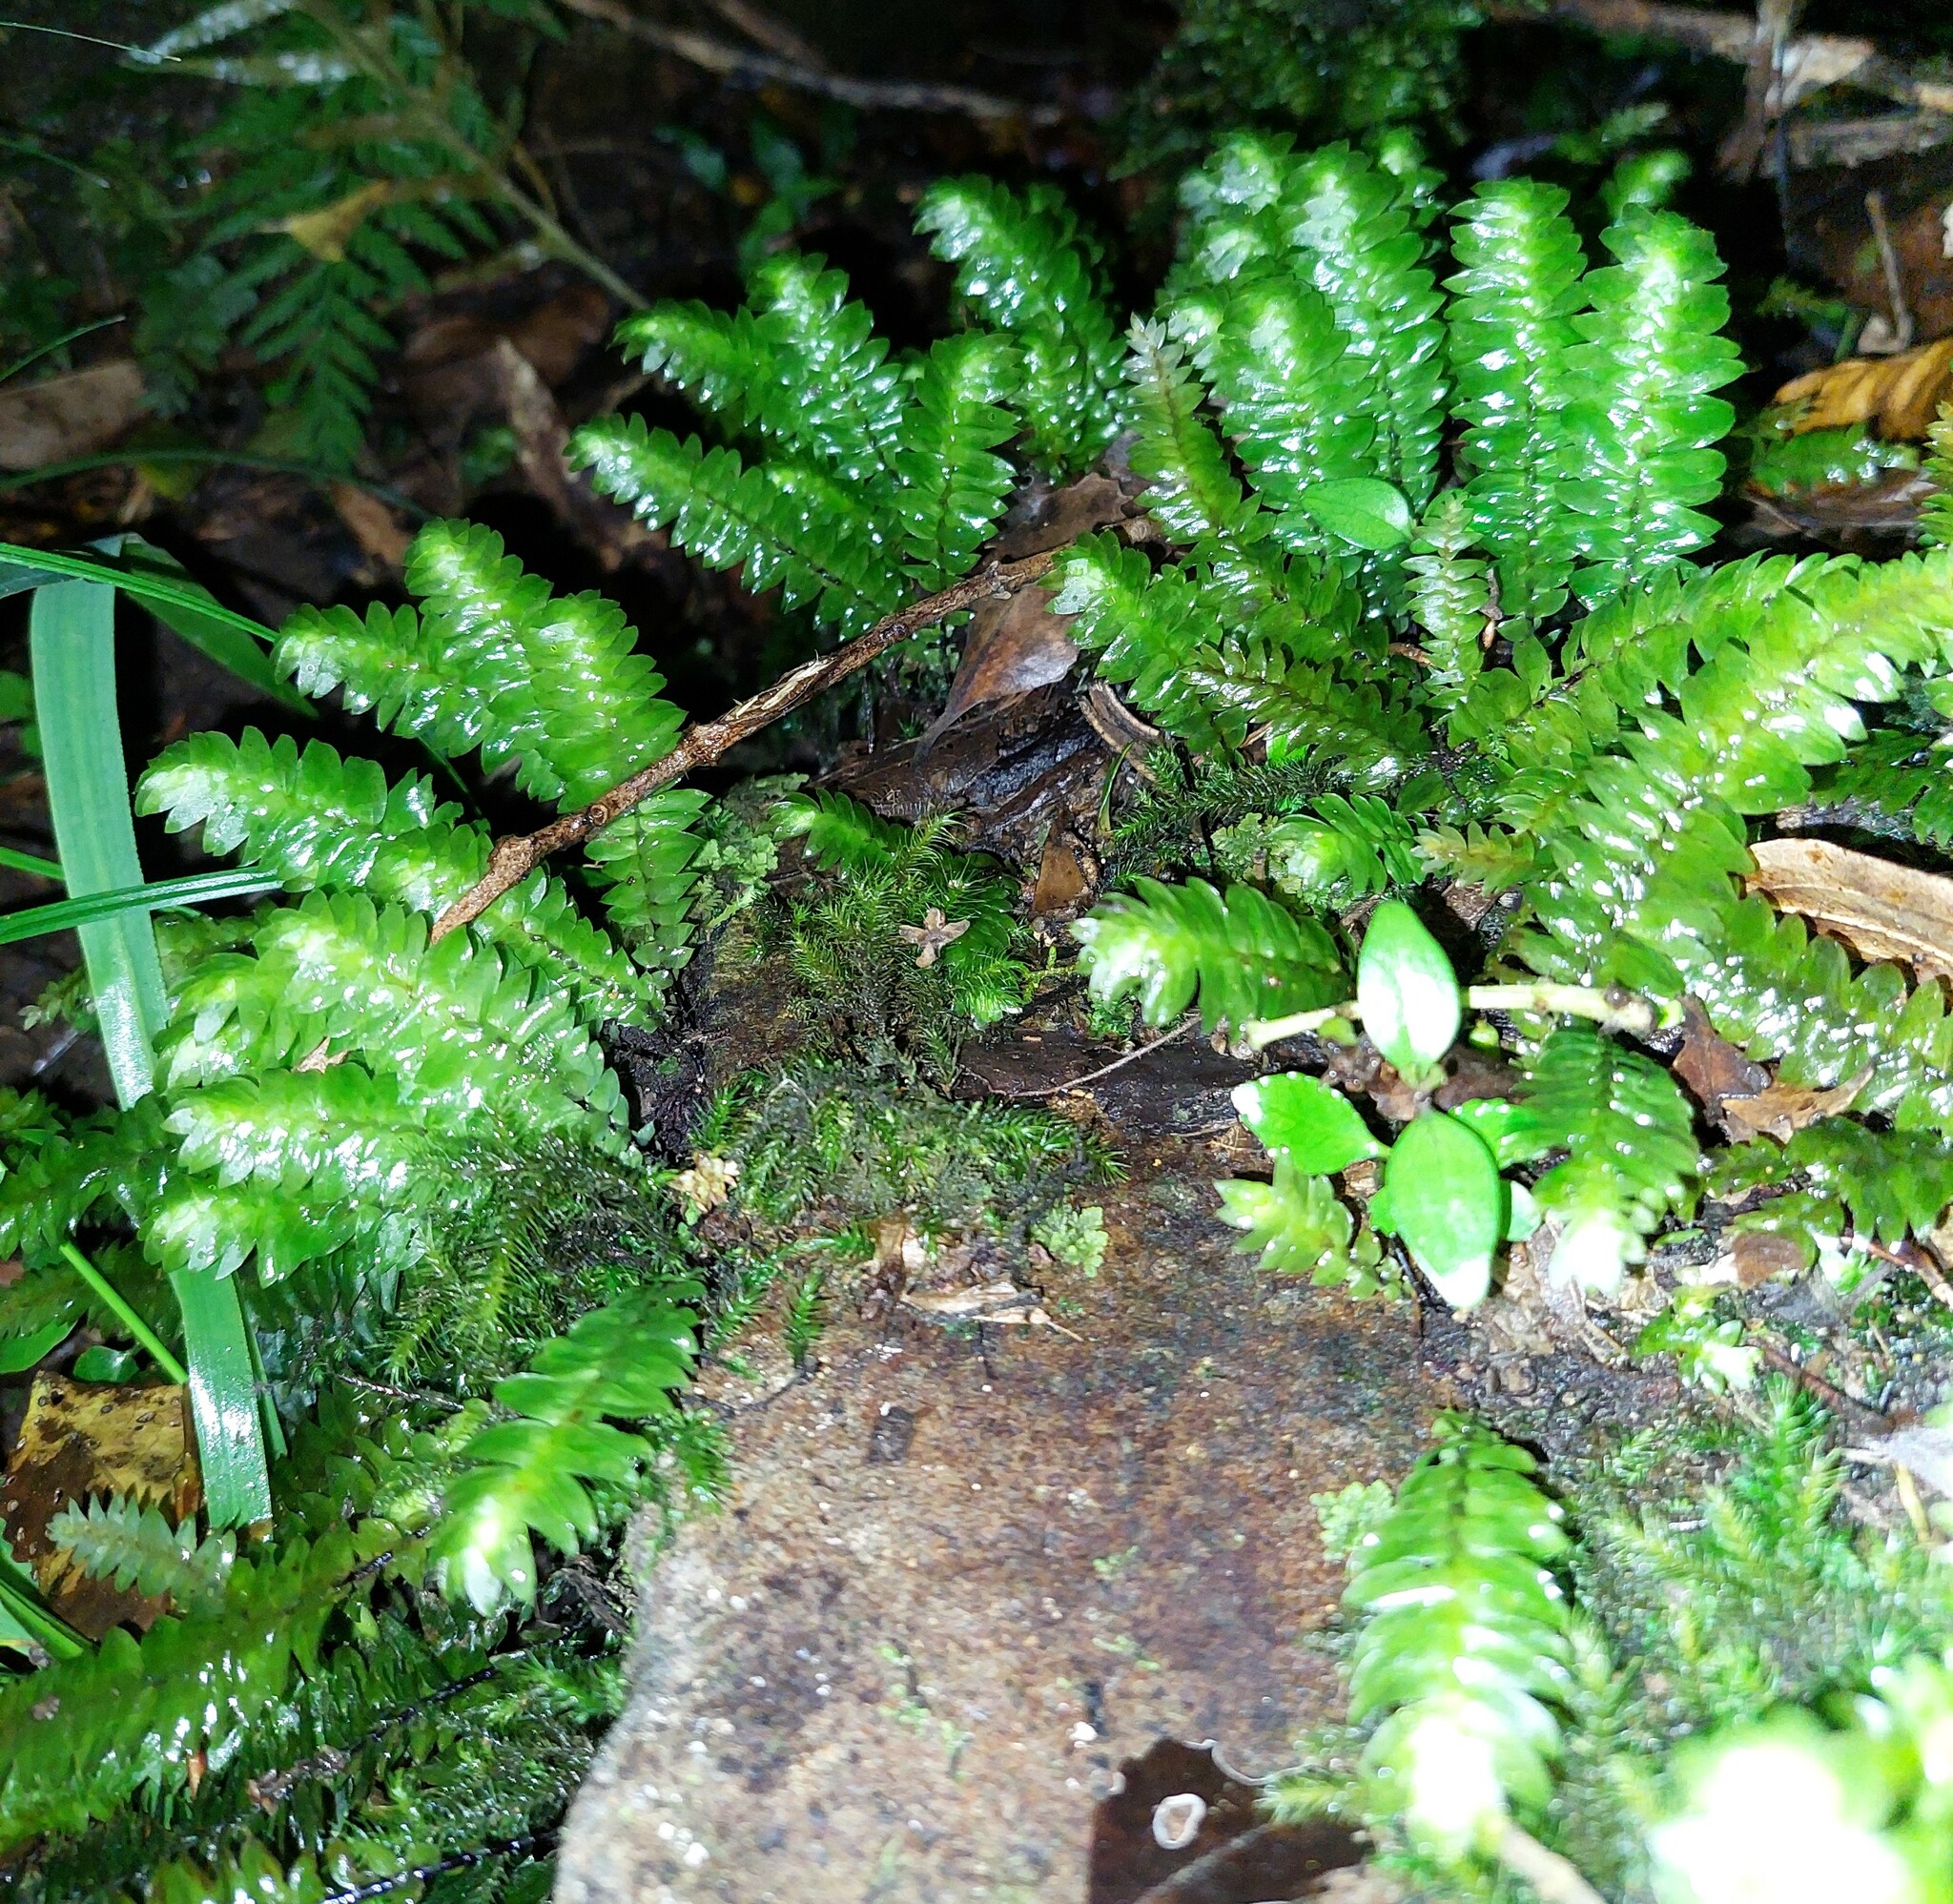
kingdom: Plantae
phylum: Bryophyta
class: Bryopsida
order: Hypopterygiales
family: Hypopterygiaceae
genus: Cyathophorum
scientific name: Cyathophorum bulbosum
